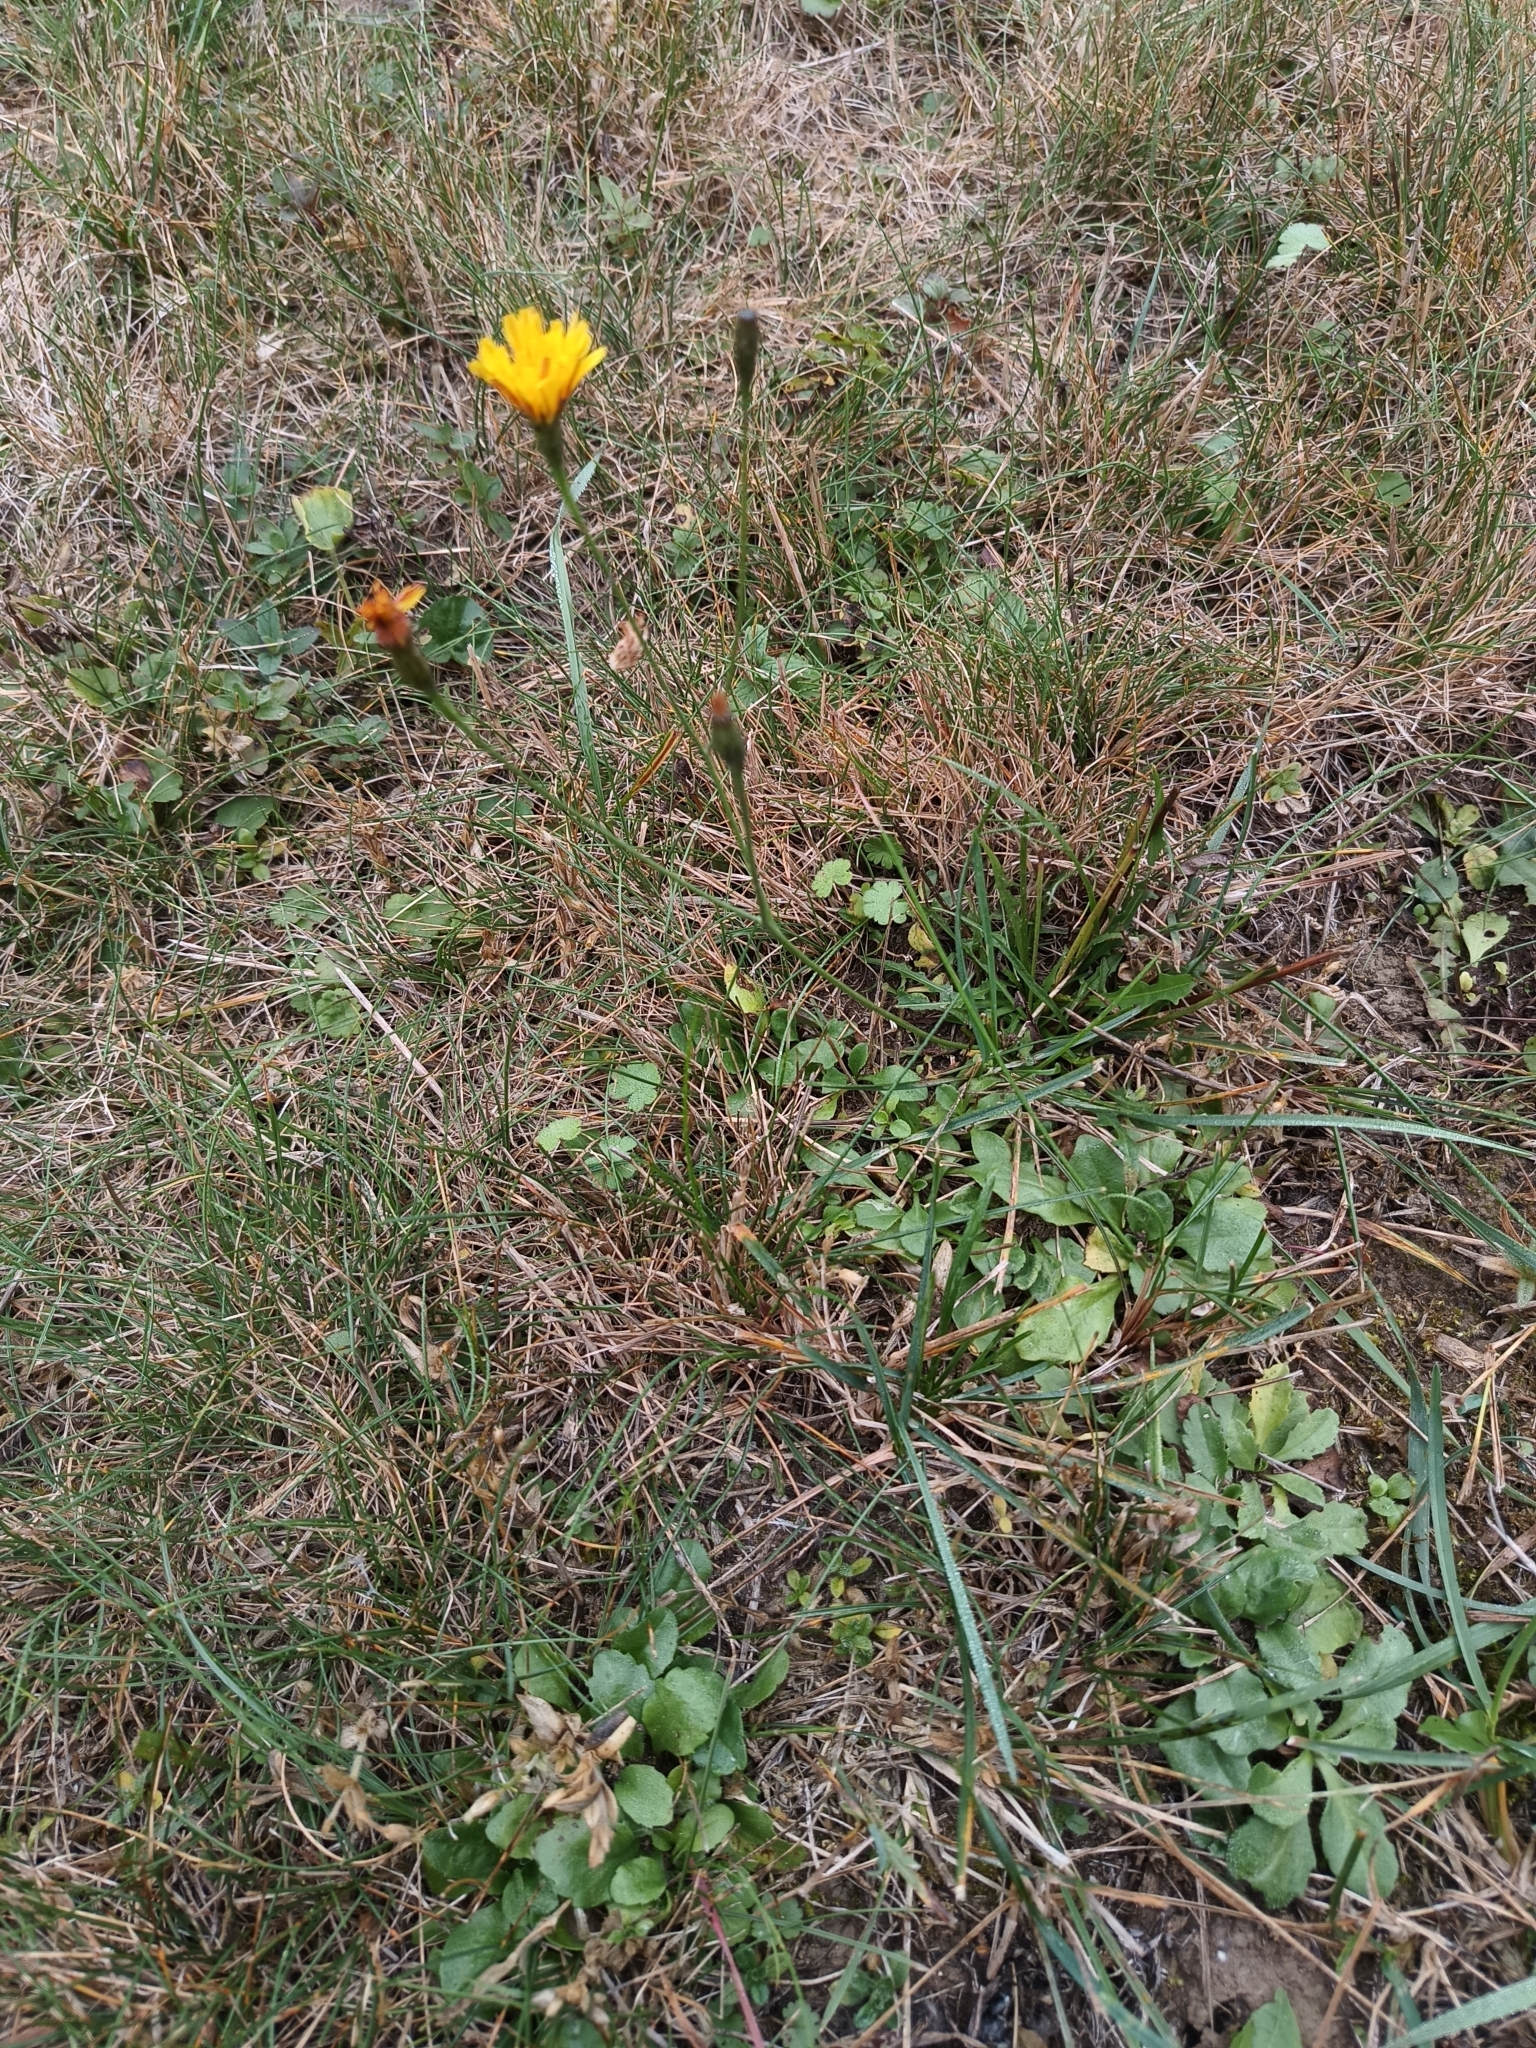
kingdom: Plantae
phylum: Tracheophyta
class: Magnoliopsida
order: Asterales
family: Asteraceae
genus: Scorzoneroides
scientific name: Scorzoneroides autumnalis
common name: Autumn hawkbit
